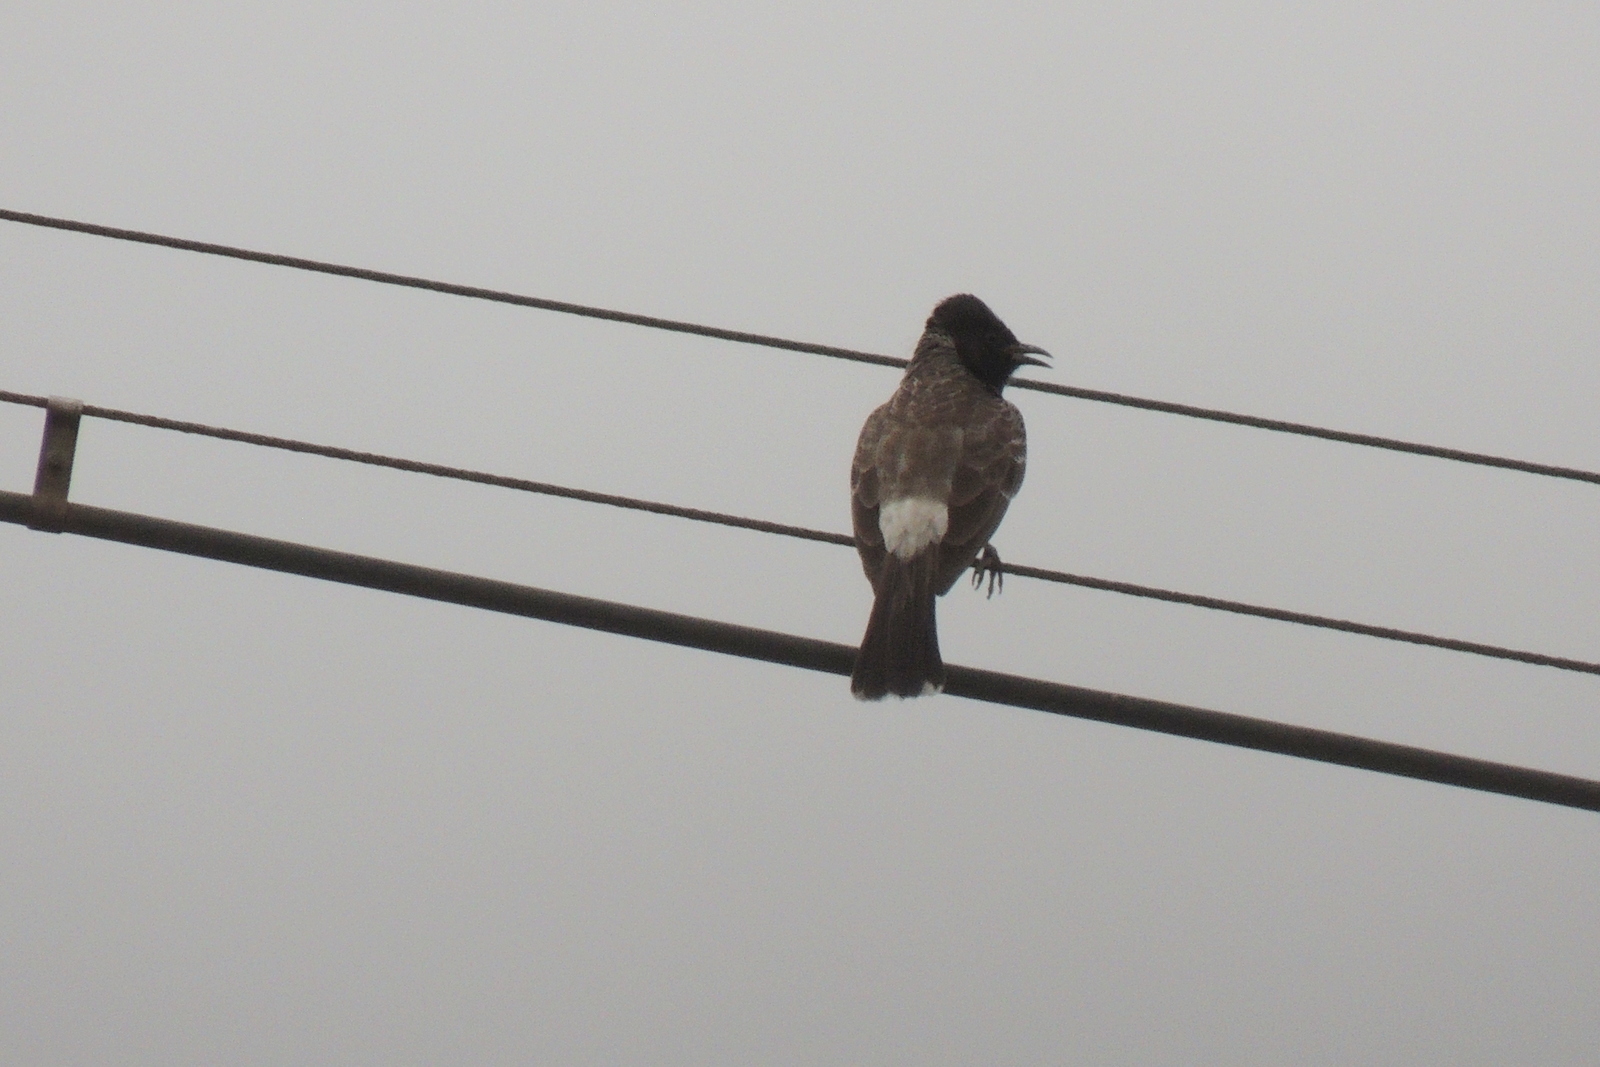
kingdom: Animalia
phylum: Chordata
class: Aves
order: Passeriformes
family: Pycnonotidae
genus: Pycnonotus
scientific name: Pycnonotus cafer
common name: Red-vented bulbul
